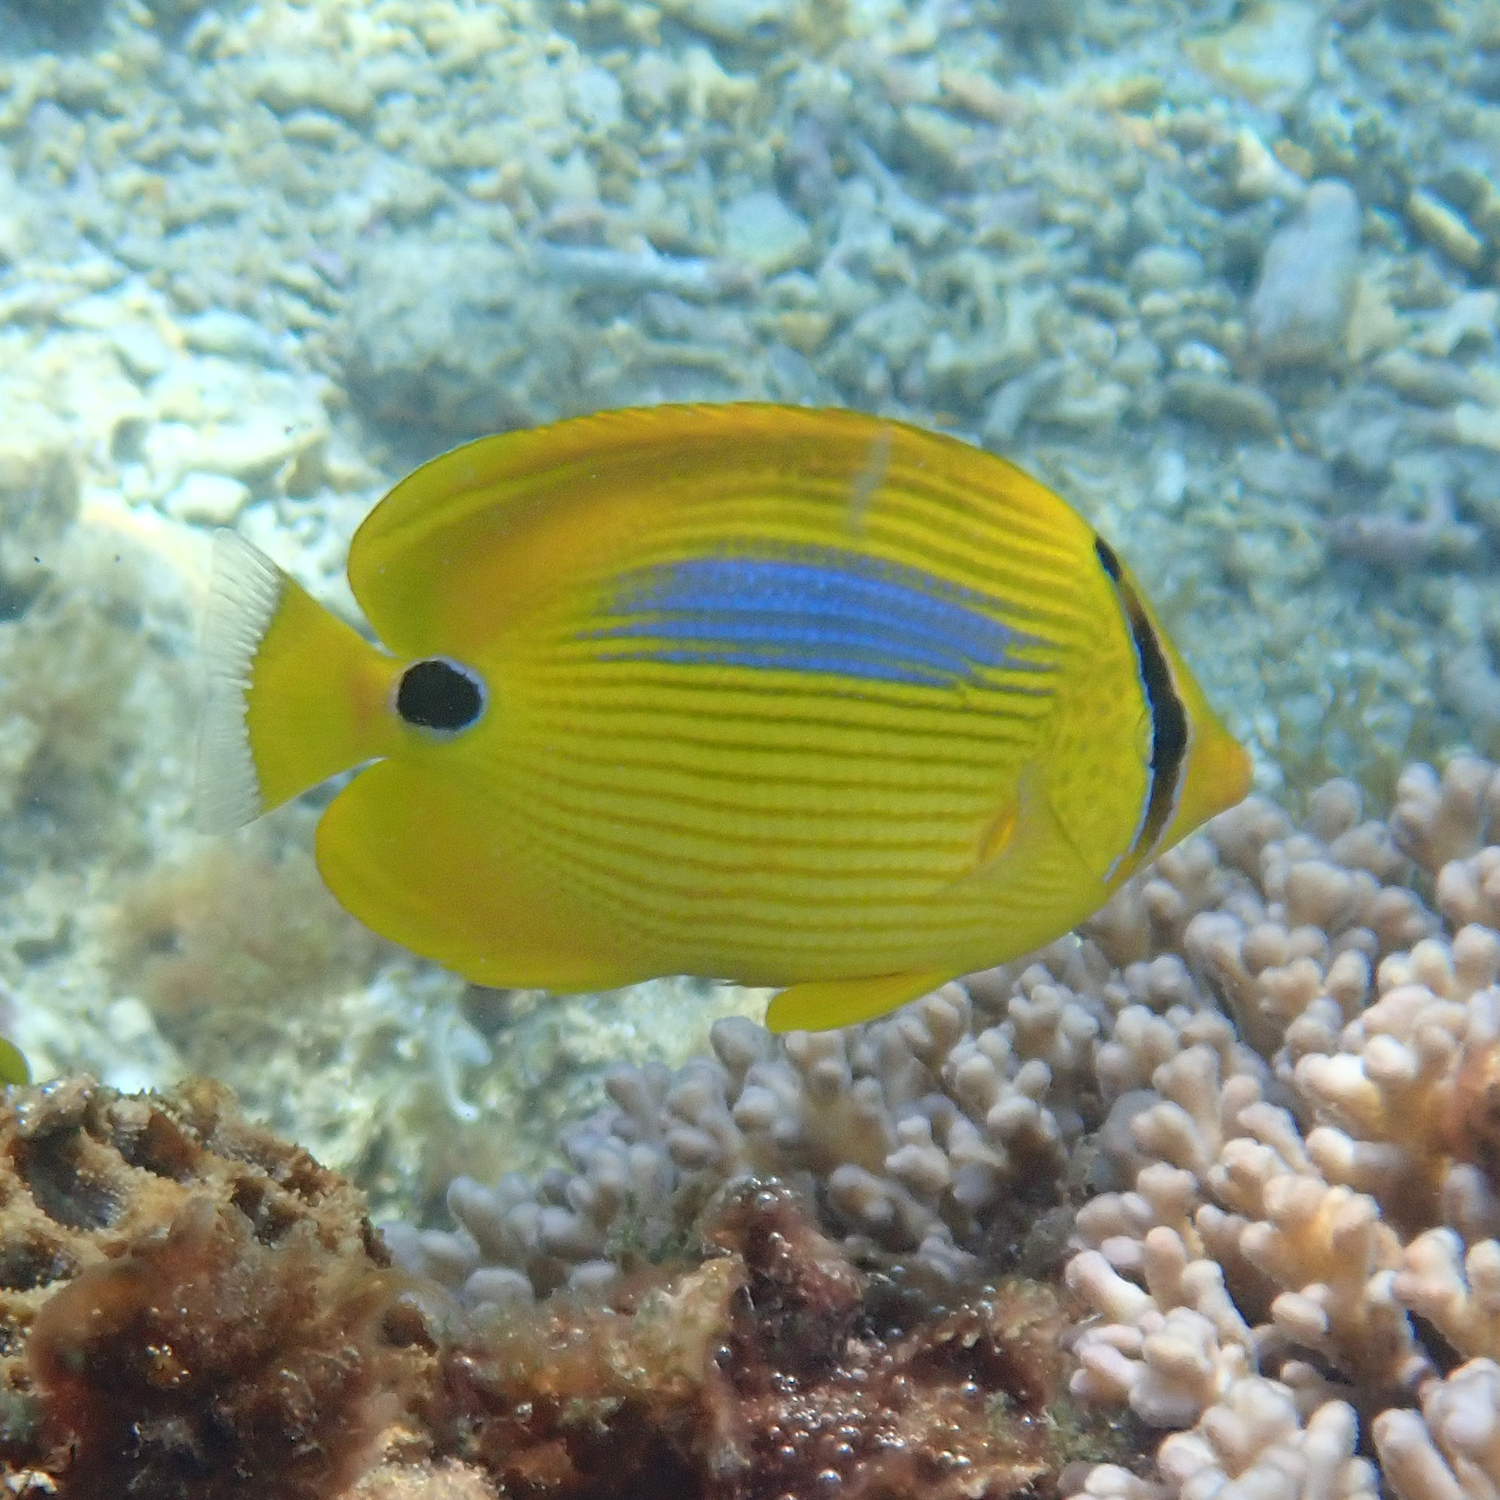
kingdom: Animalia
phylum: Chordata
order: Perciformes
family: Chaetodontidae
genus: Chaetodon
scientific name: Chaetodon plebeius
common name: Bluespot butterflyfish
